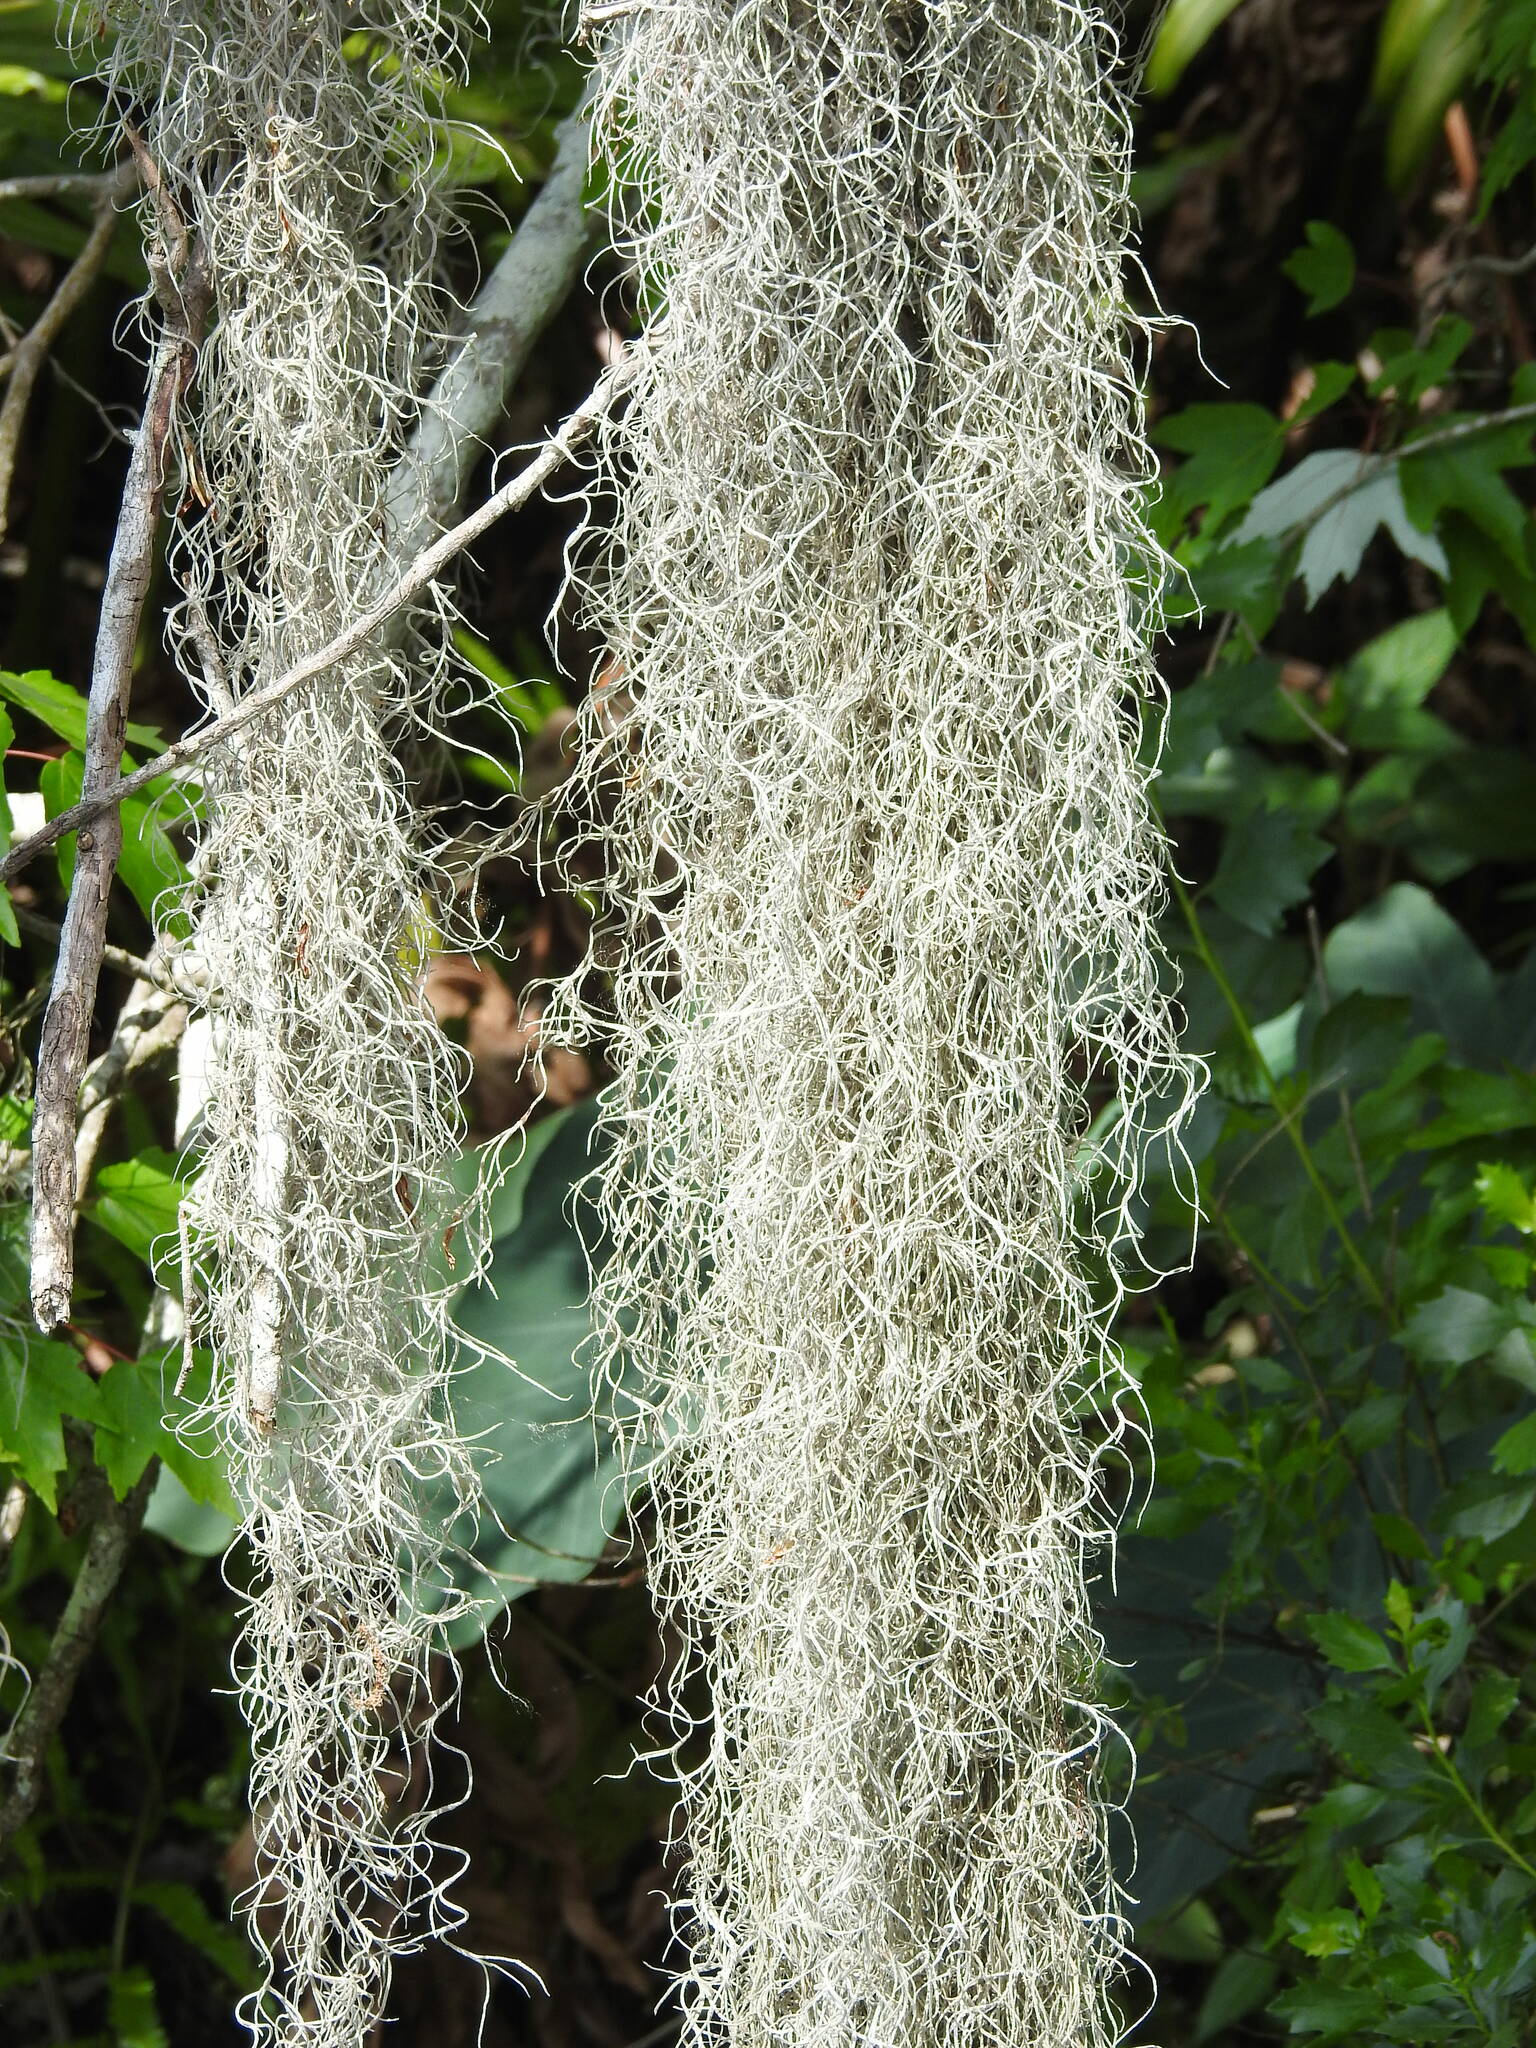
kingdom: Plantae
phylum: Tracheophyta
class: Liliopsida
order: Poales
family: Bromeliaceae
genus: Tillandsia
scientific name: Tillandsia usneoides
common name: Spanish moss
